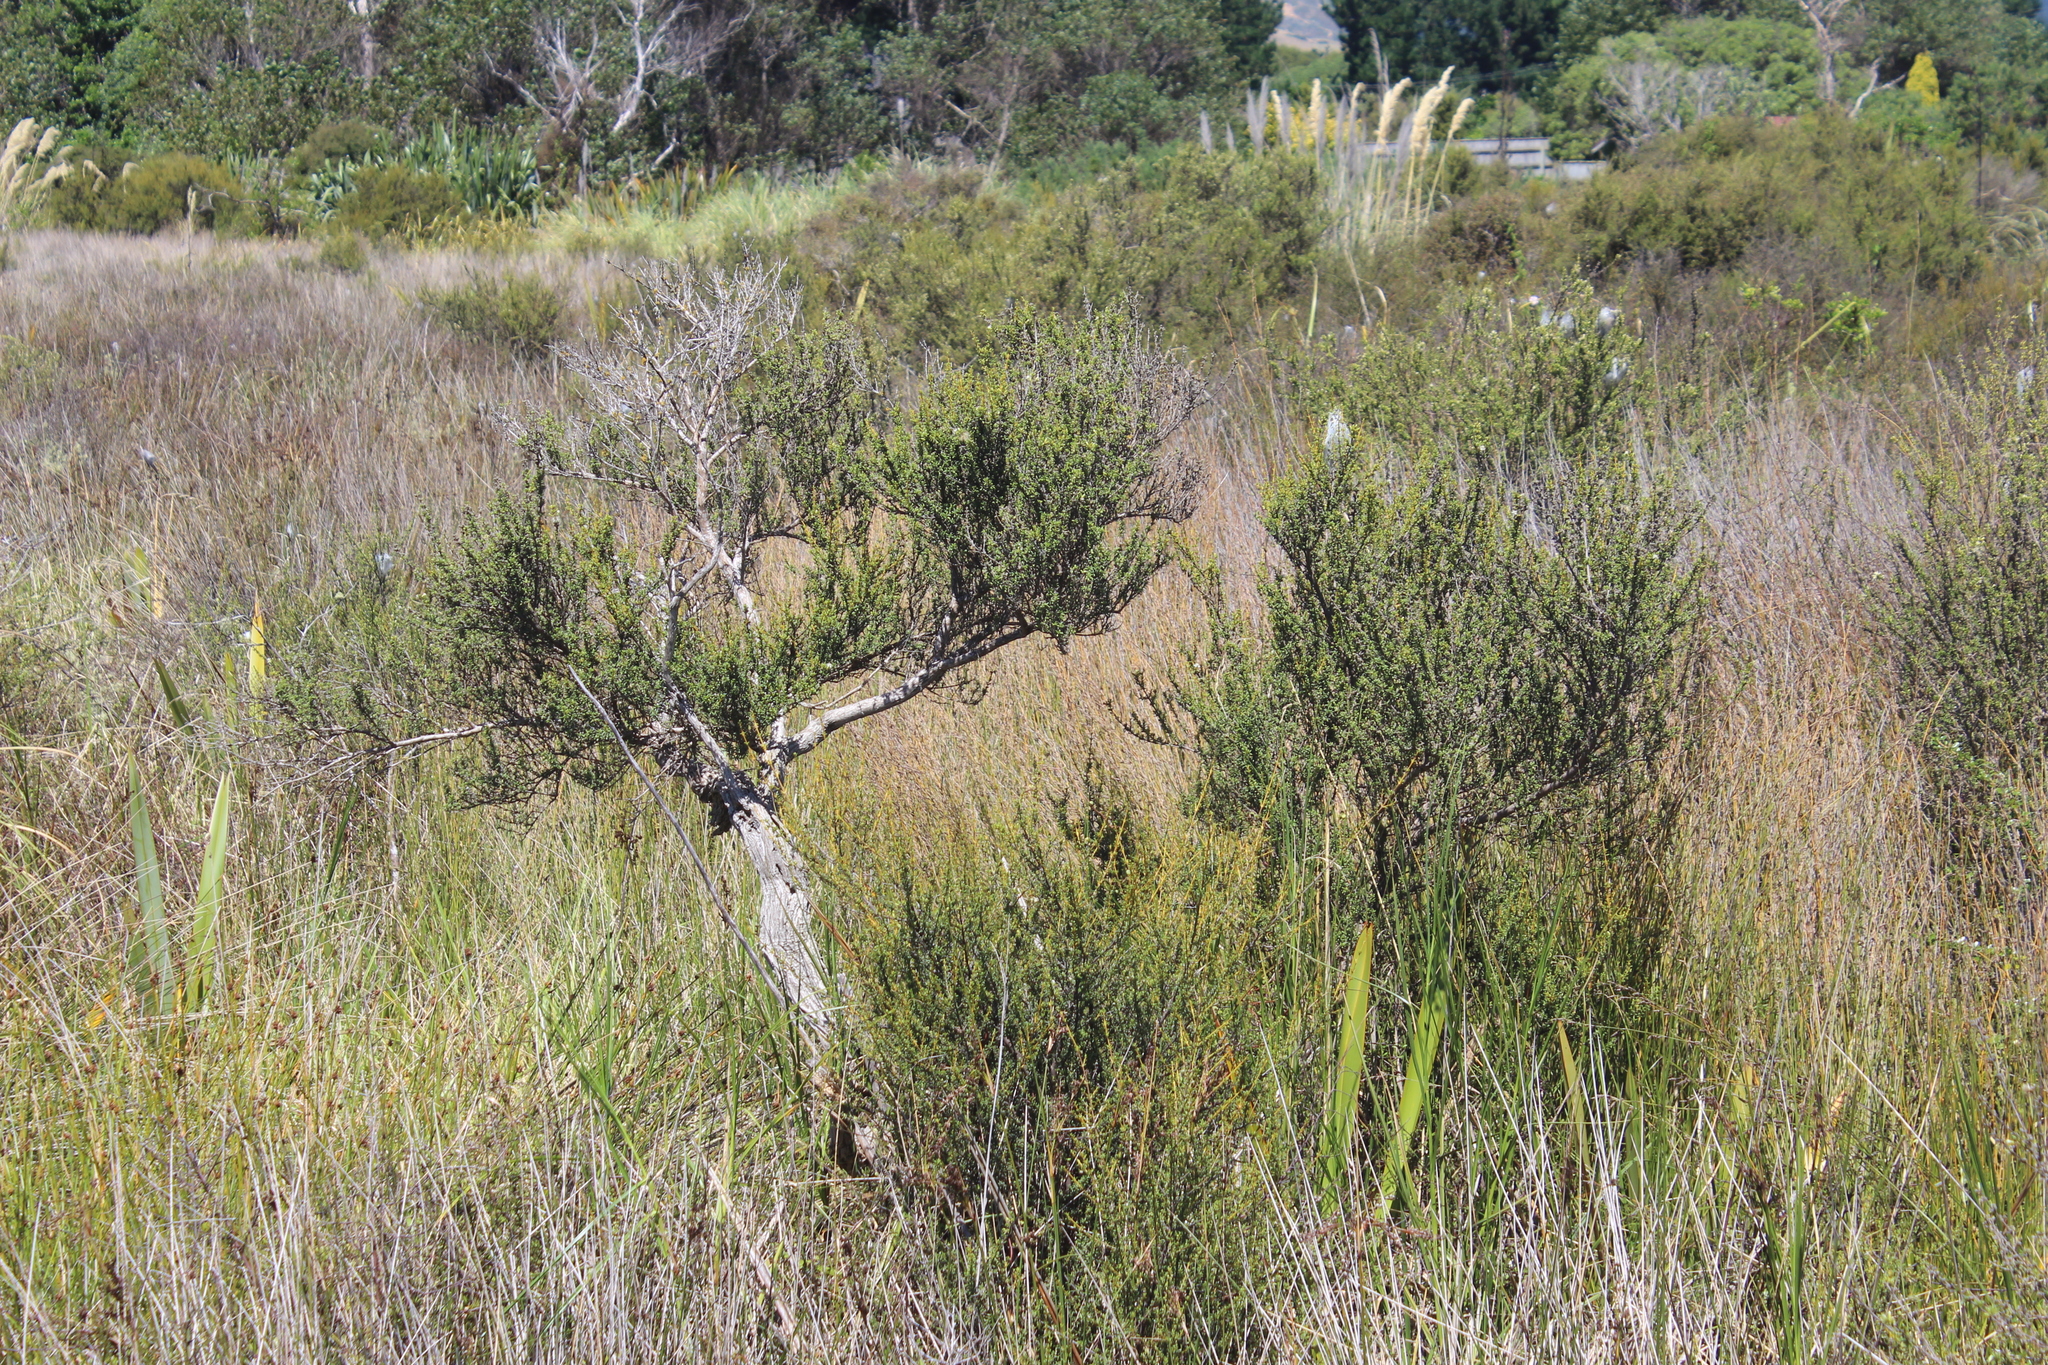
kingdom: Plantae
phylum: Tracheophyta
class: Magnoliopsida
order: Asterales
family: Asteraceae
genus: Olearia
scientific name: Olearia solandri
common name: Coastal daisybush
